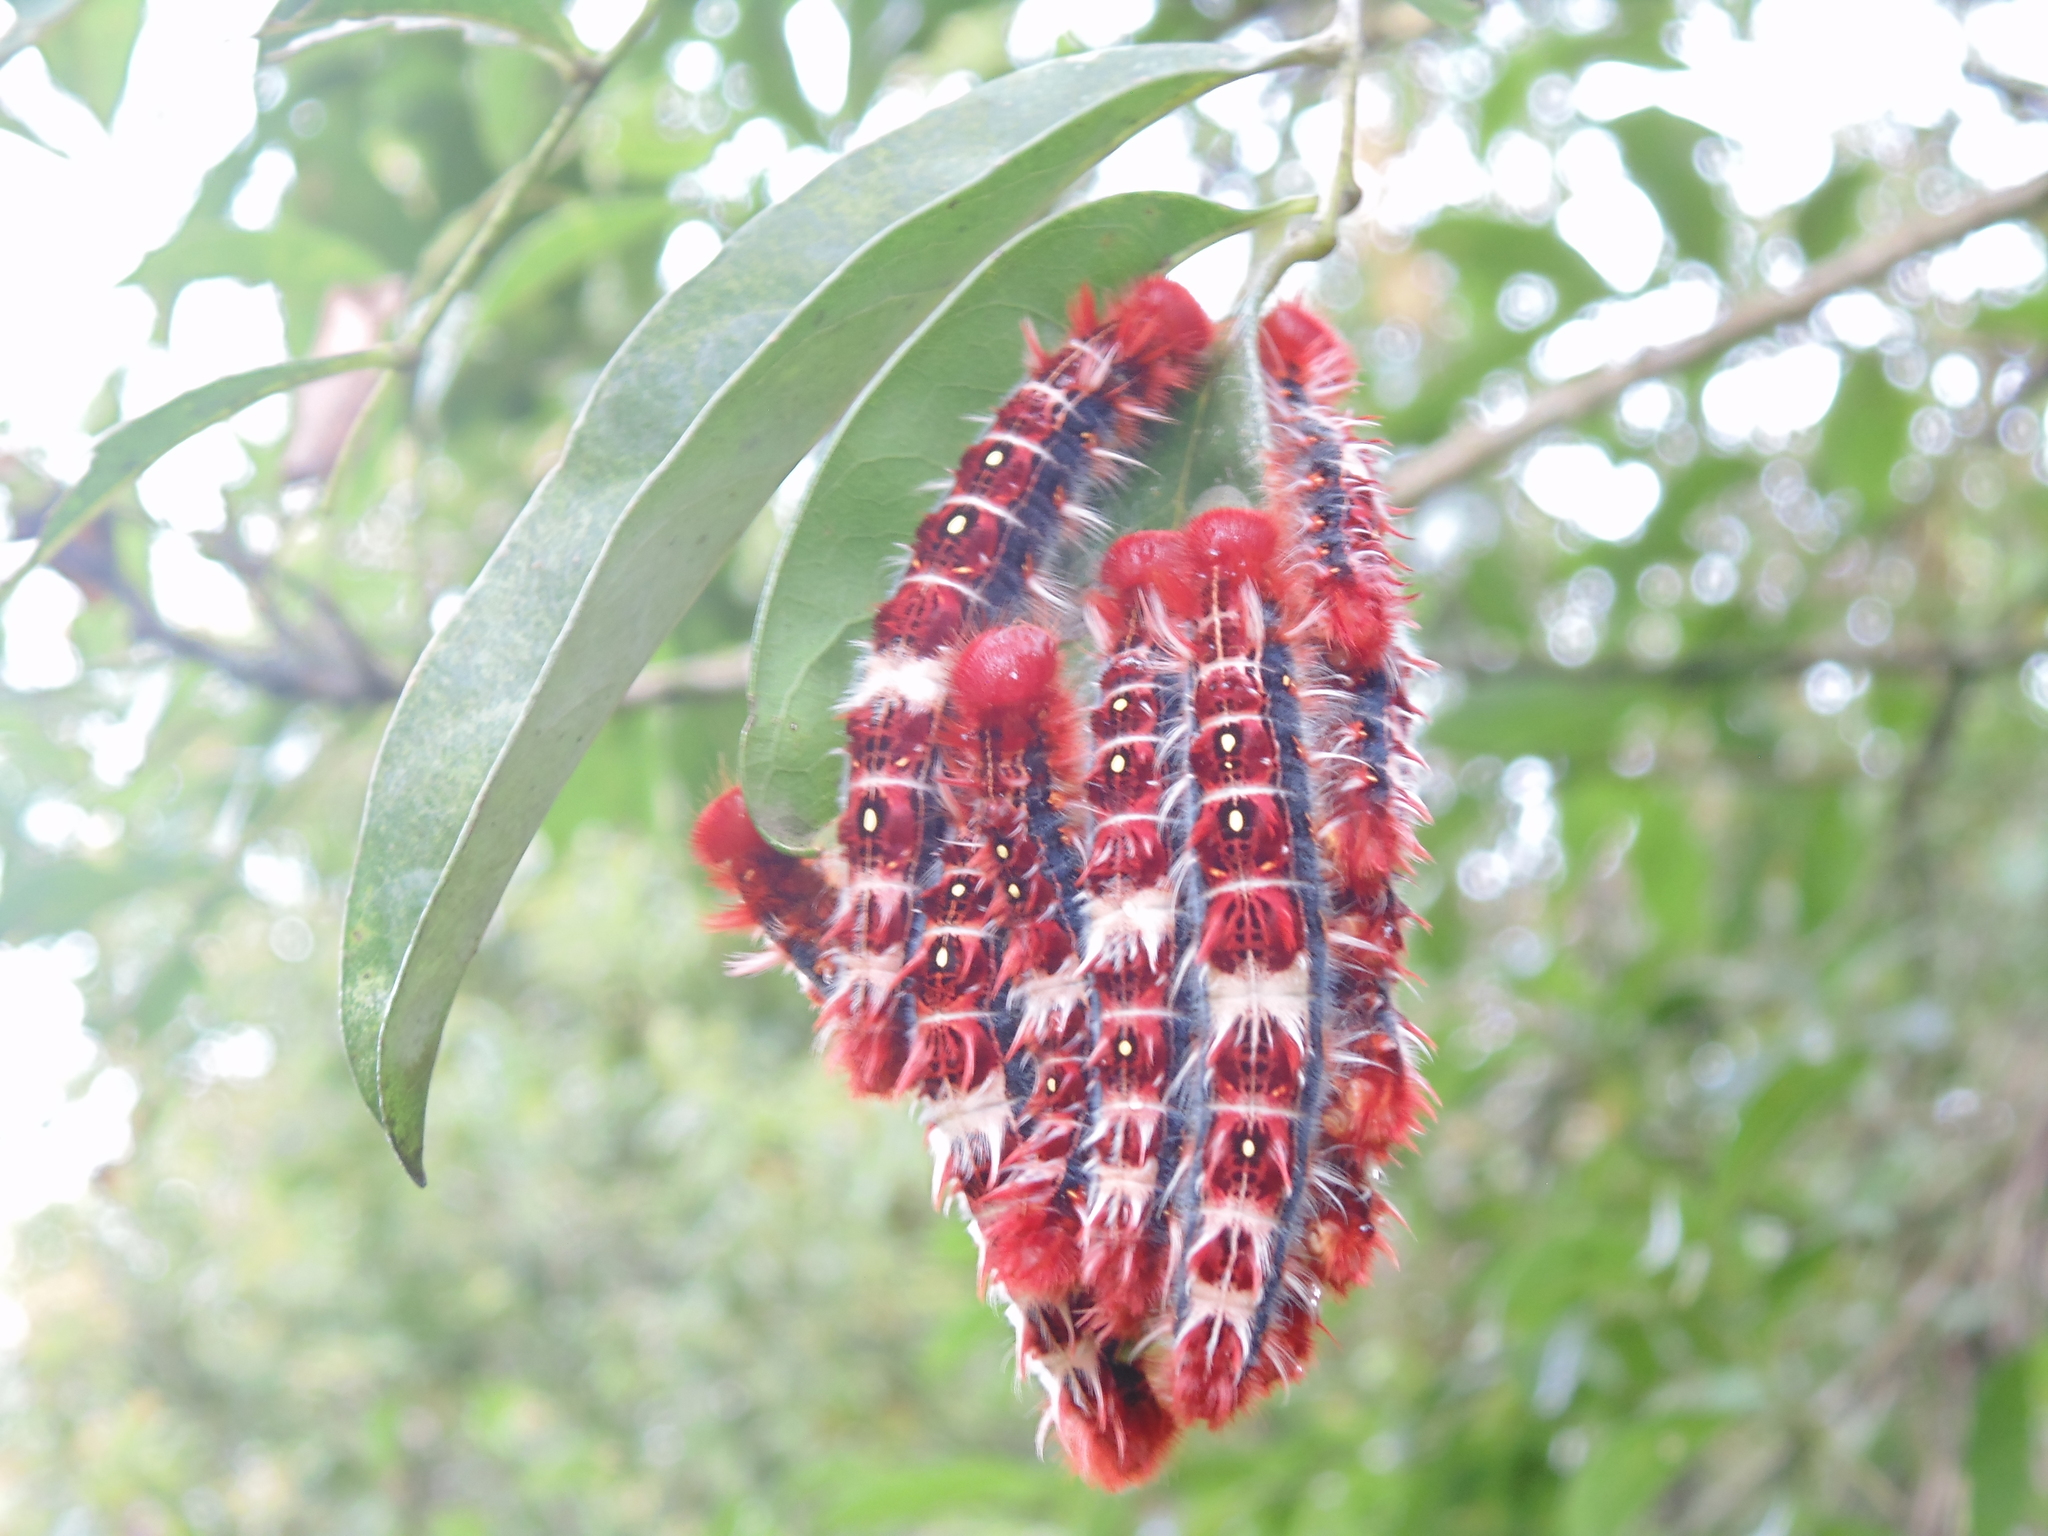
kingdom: Animalia
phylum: Arthropoda
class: Insecta
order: Lepidoptera
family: Nymphalidae
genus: Morpho
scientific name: Morpho epistrophus
